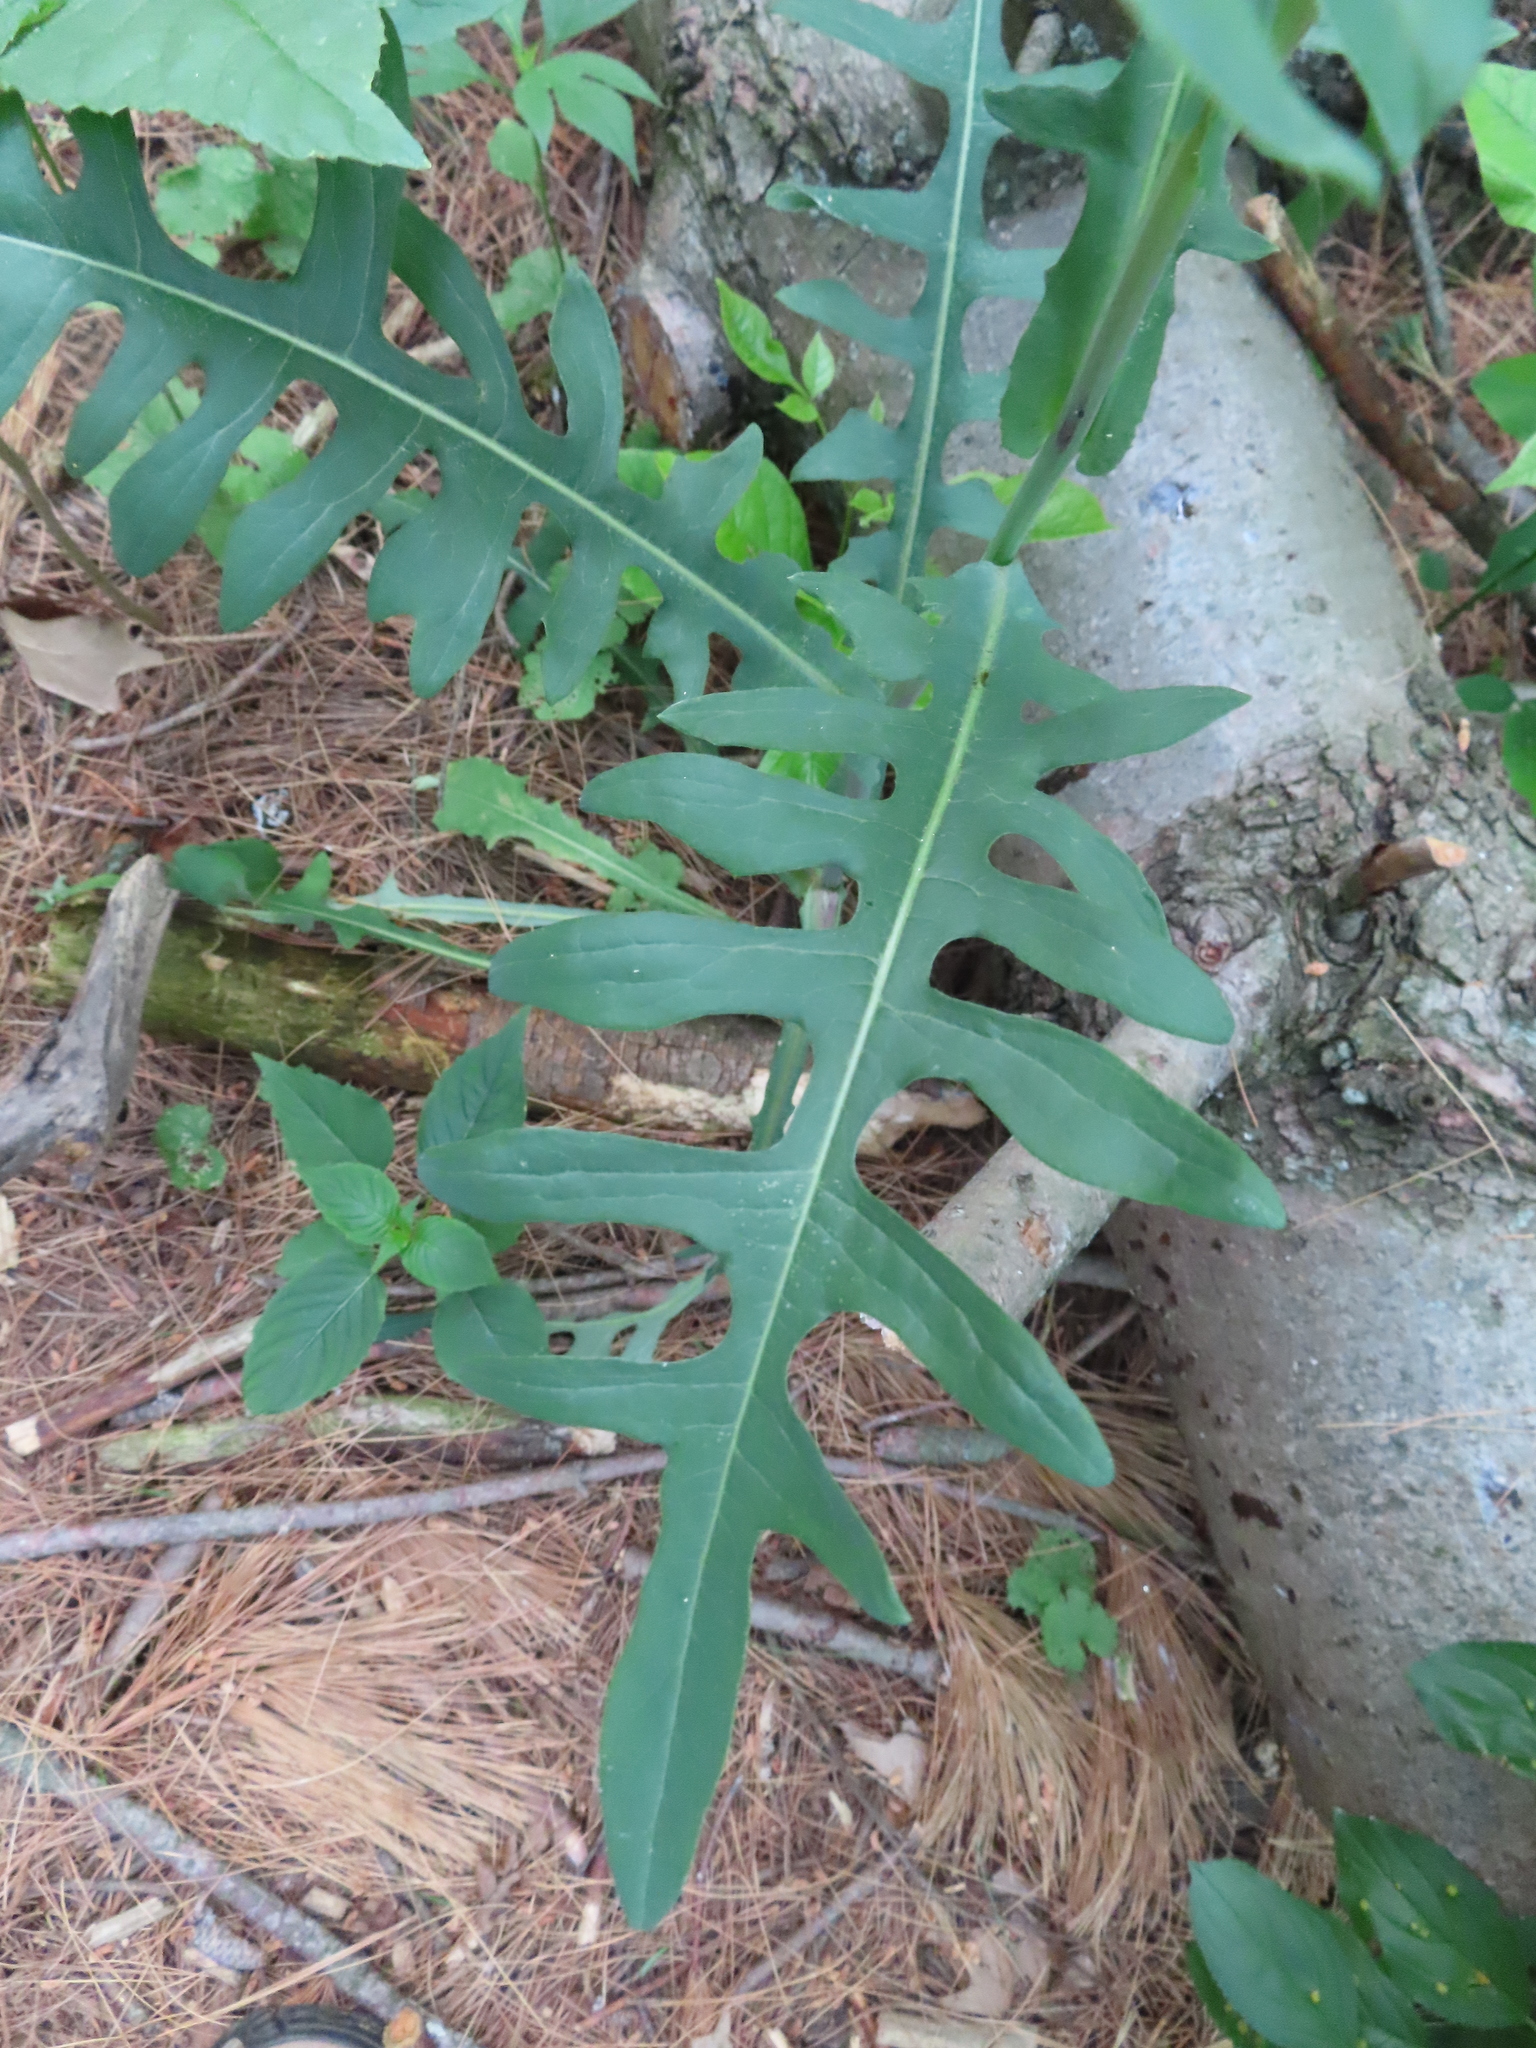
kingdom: Plantae
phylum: Tracheophyta
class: Magnoliopsida
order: Asterales
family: Asteraceae
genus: Lactuca
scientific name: Lactuca canadensis
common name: Canada lettuce
